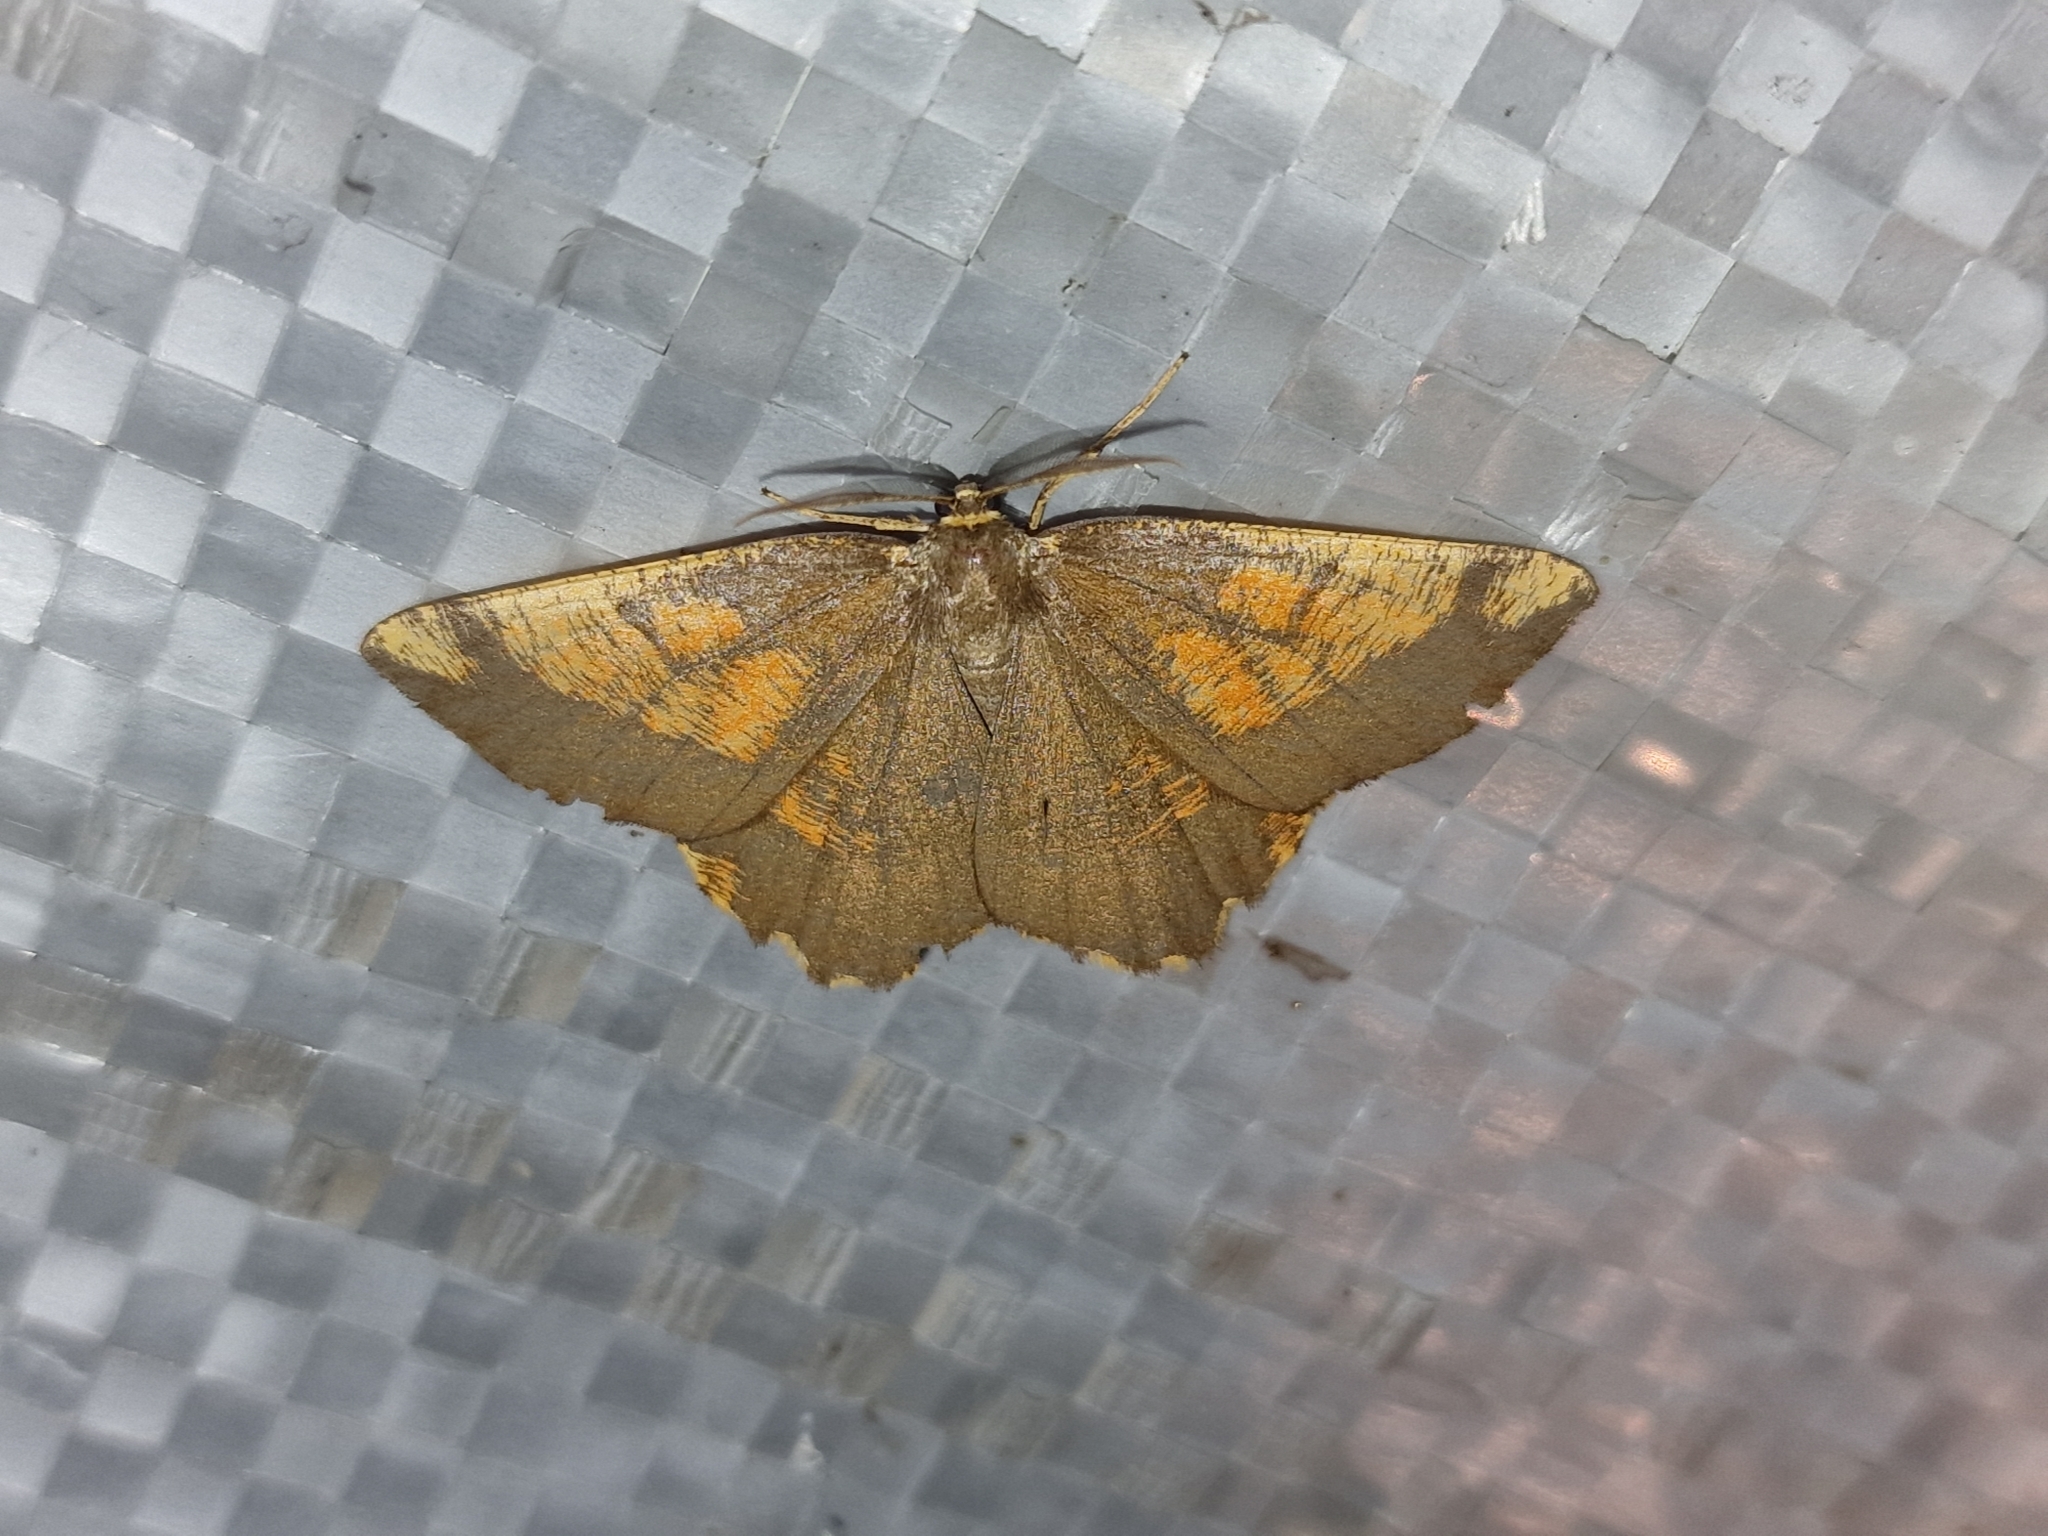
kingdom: Animalia
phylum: Arthropoda
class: Insecta
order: Lepidoptera
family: Geometridae
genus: Angerona
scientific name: Angerona prunaria
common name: Orange moth
